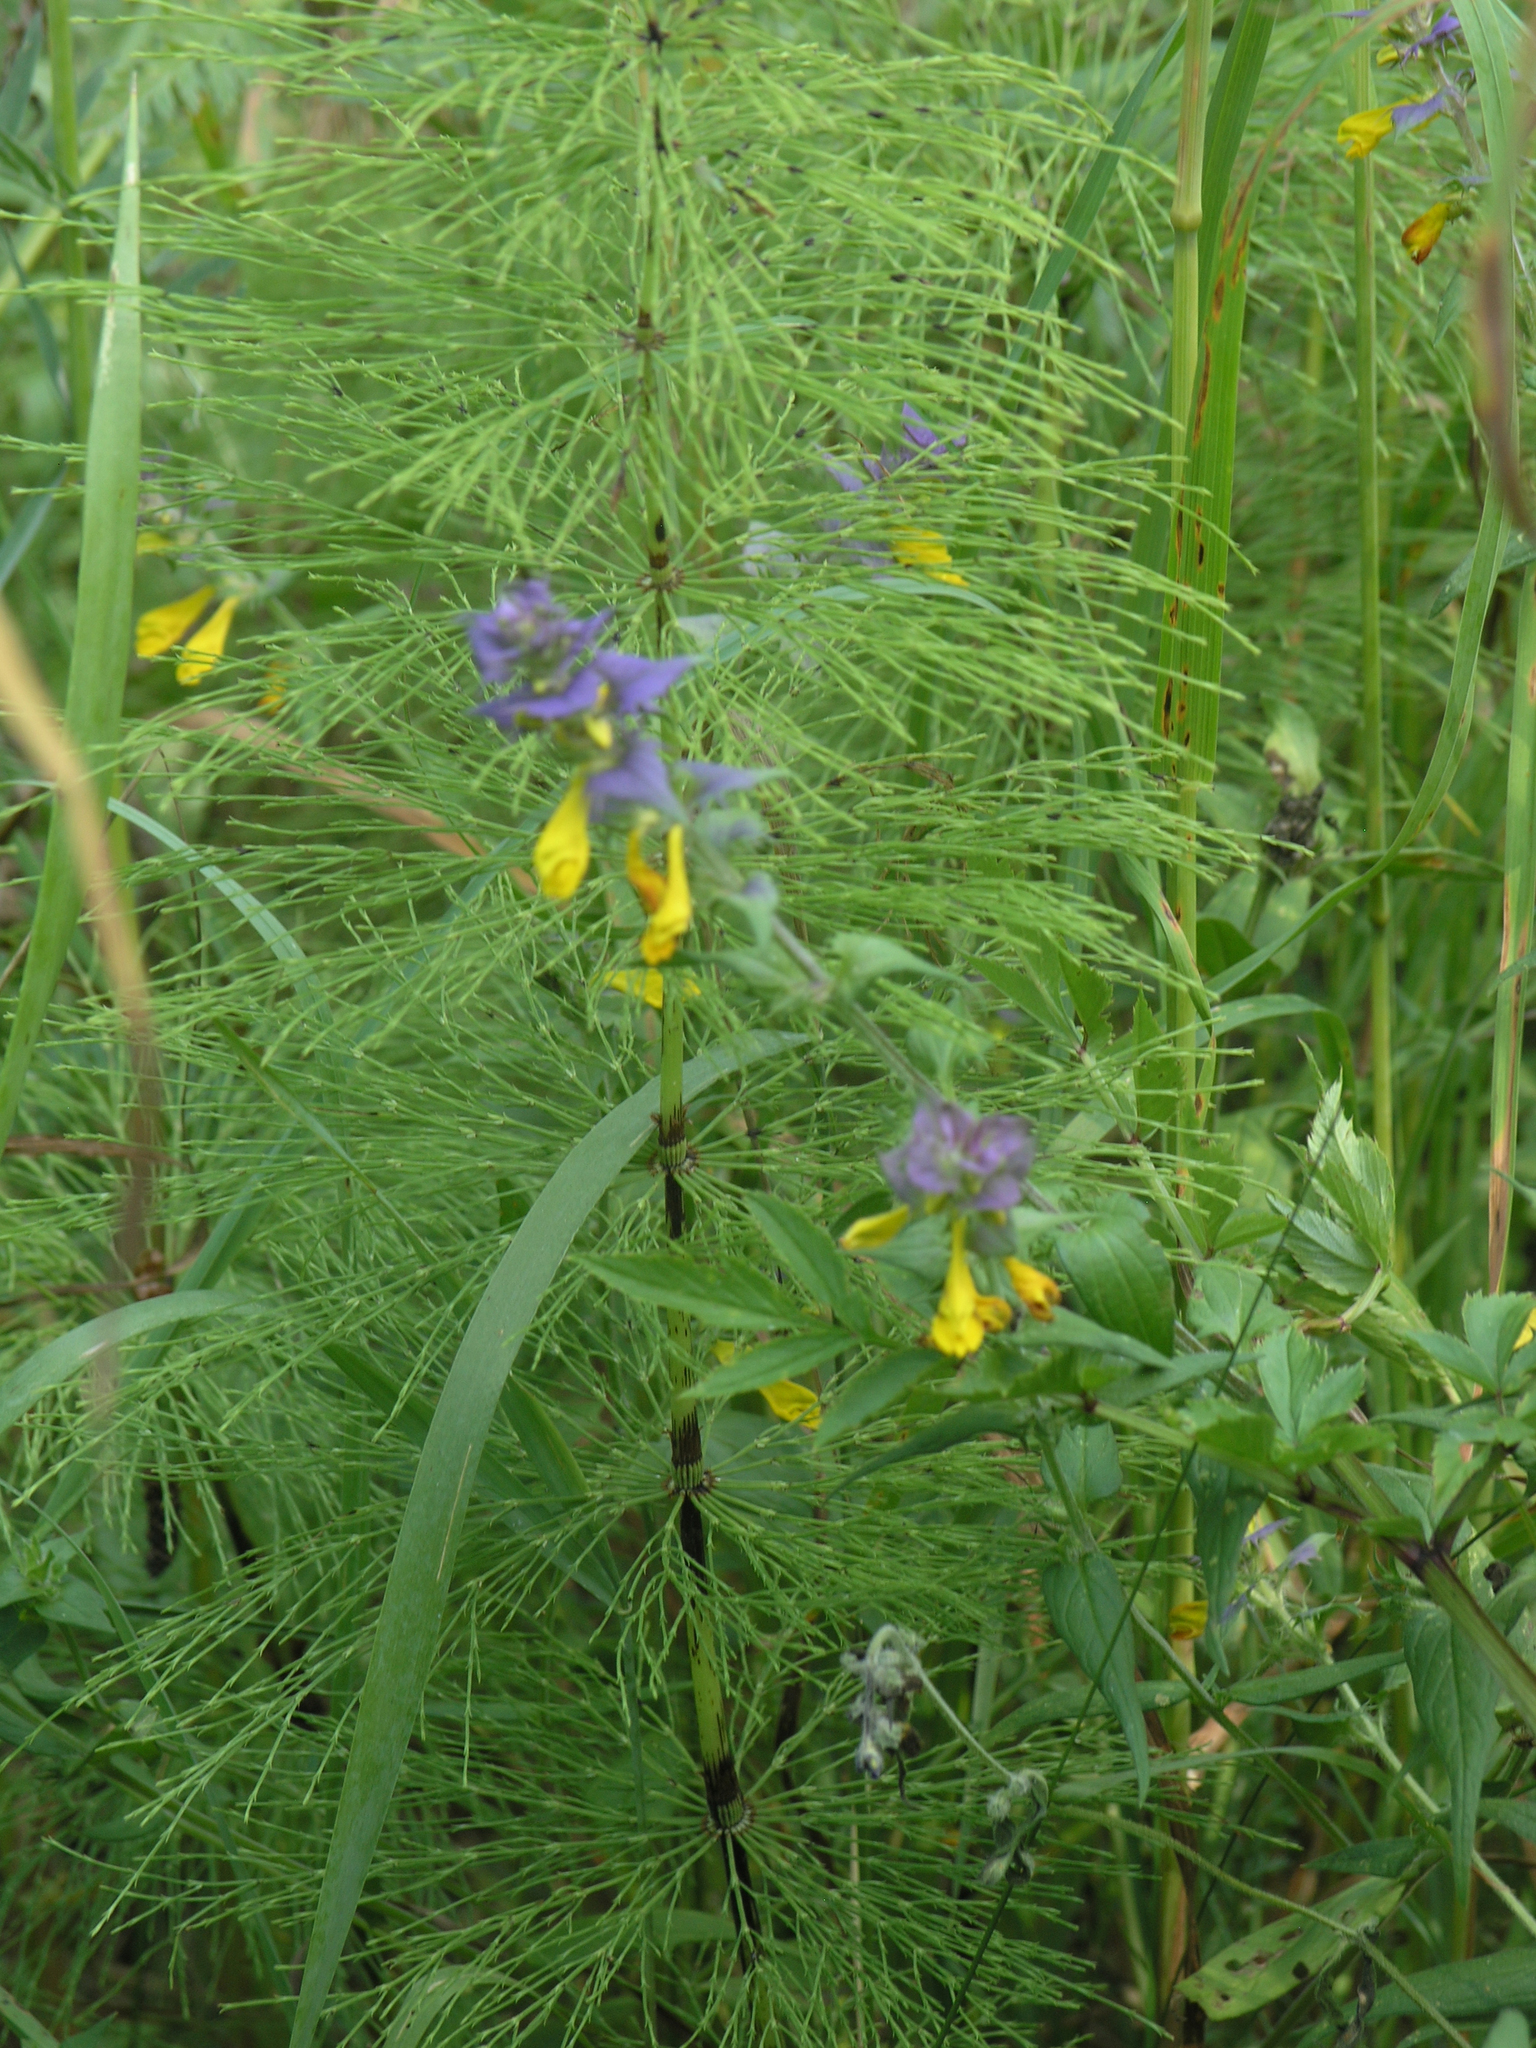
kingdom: Plantae
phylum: Tracheophyta
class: Polypodiopsida
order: Equisetales
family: Equisetaceae
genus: Equisetum
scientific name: Equisetum sylvaticum
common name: Wood horsetail
